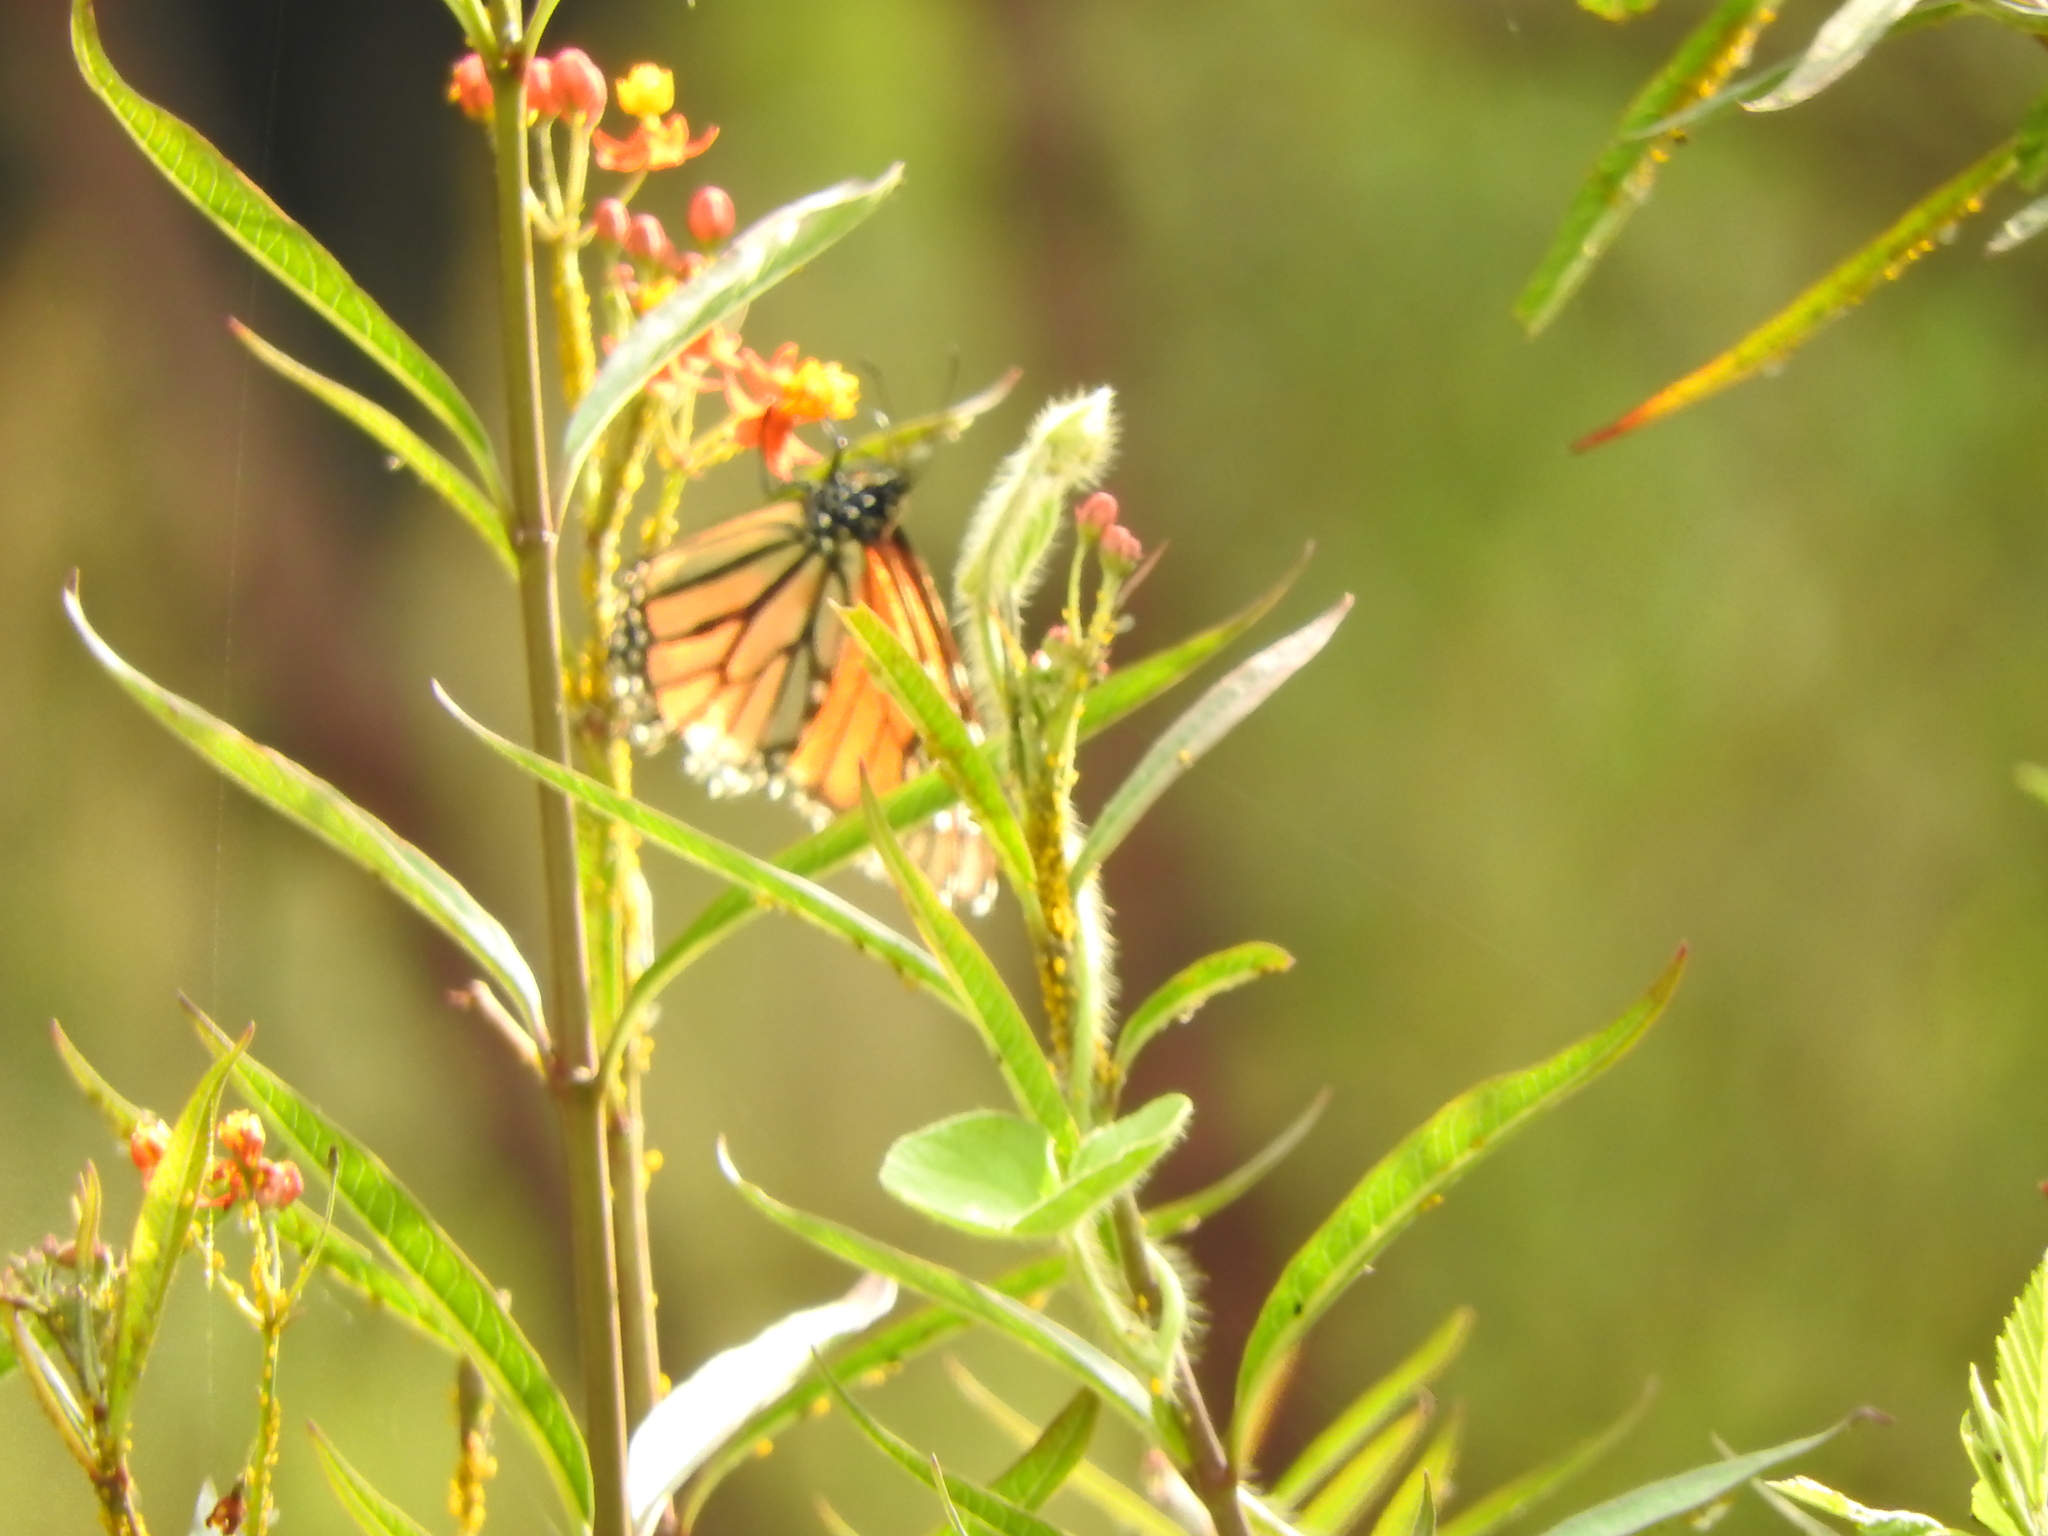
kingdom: Animalia
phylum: Arthropoda
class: Insecta
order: Lepidoptera
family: Nymphalidae
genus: Danaus
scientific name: Danaus plexippus
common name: Monarch
